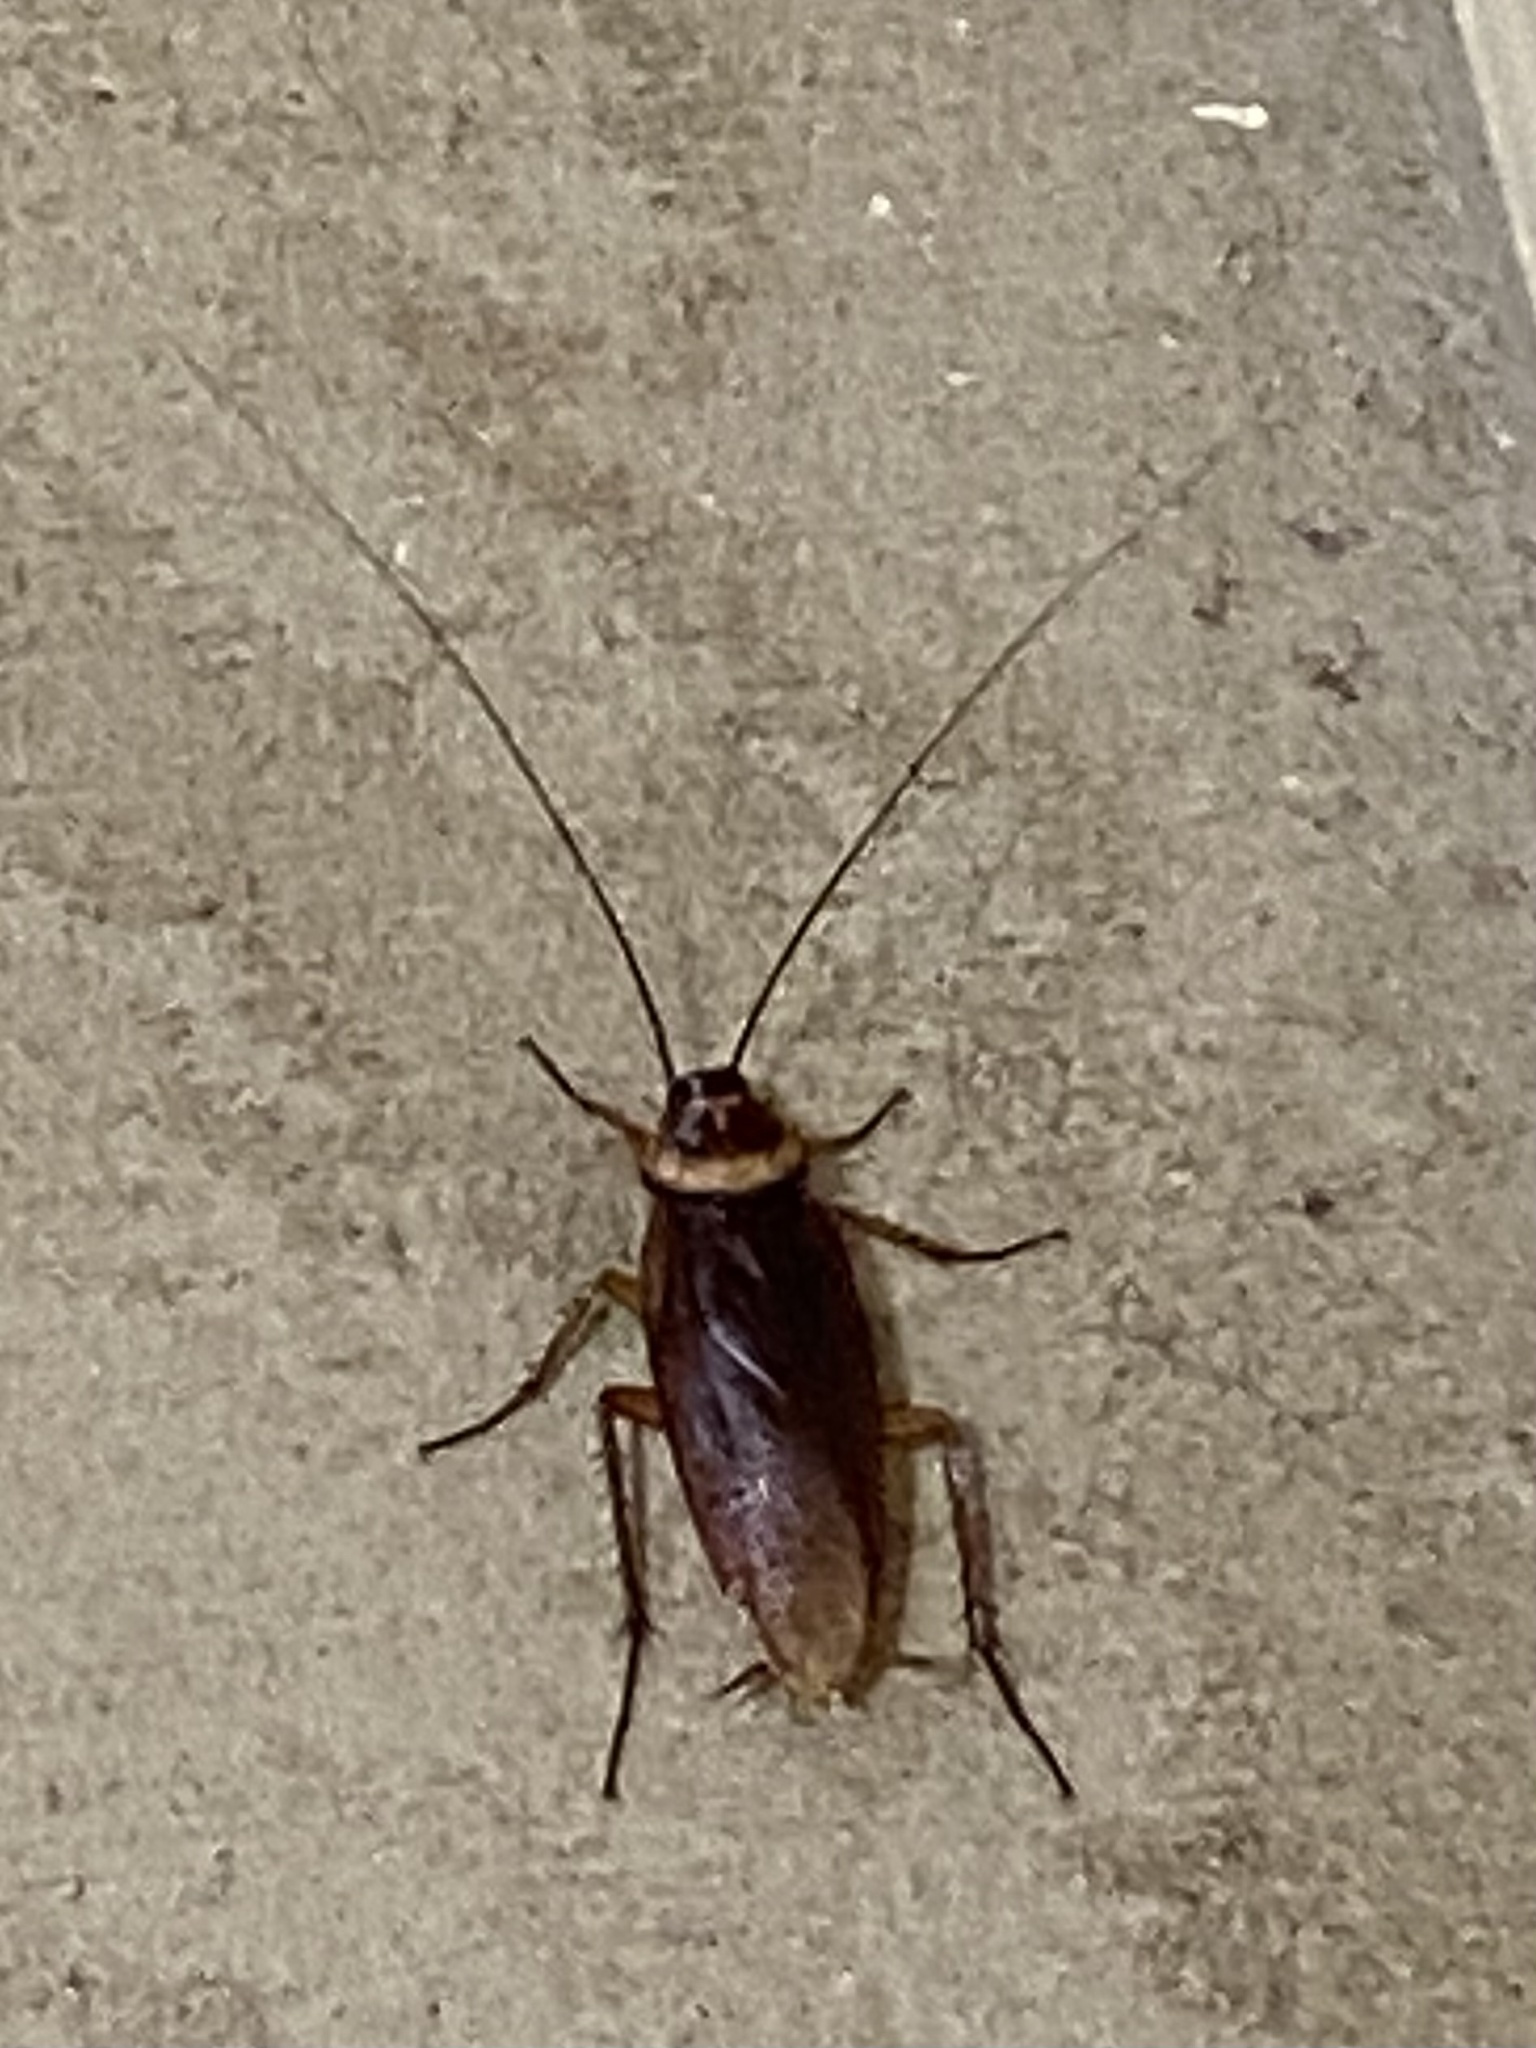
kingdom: Animalia
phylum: Arthropoda
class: Insecta
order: Blattodea
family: Blattidae
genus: Periplaneta
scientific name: Periplaneta americana
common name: American cockroach
